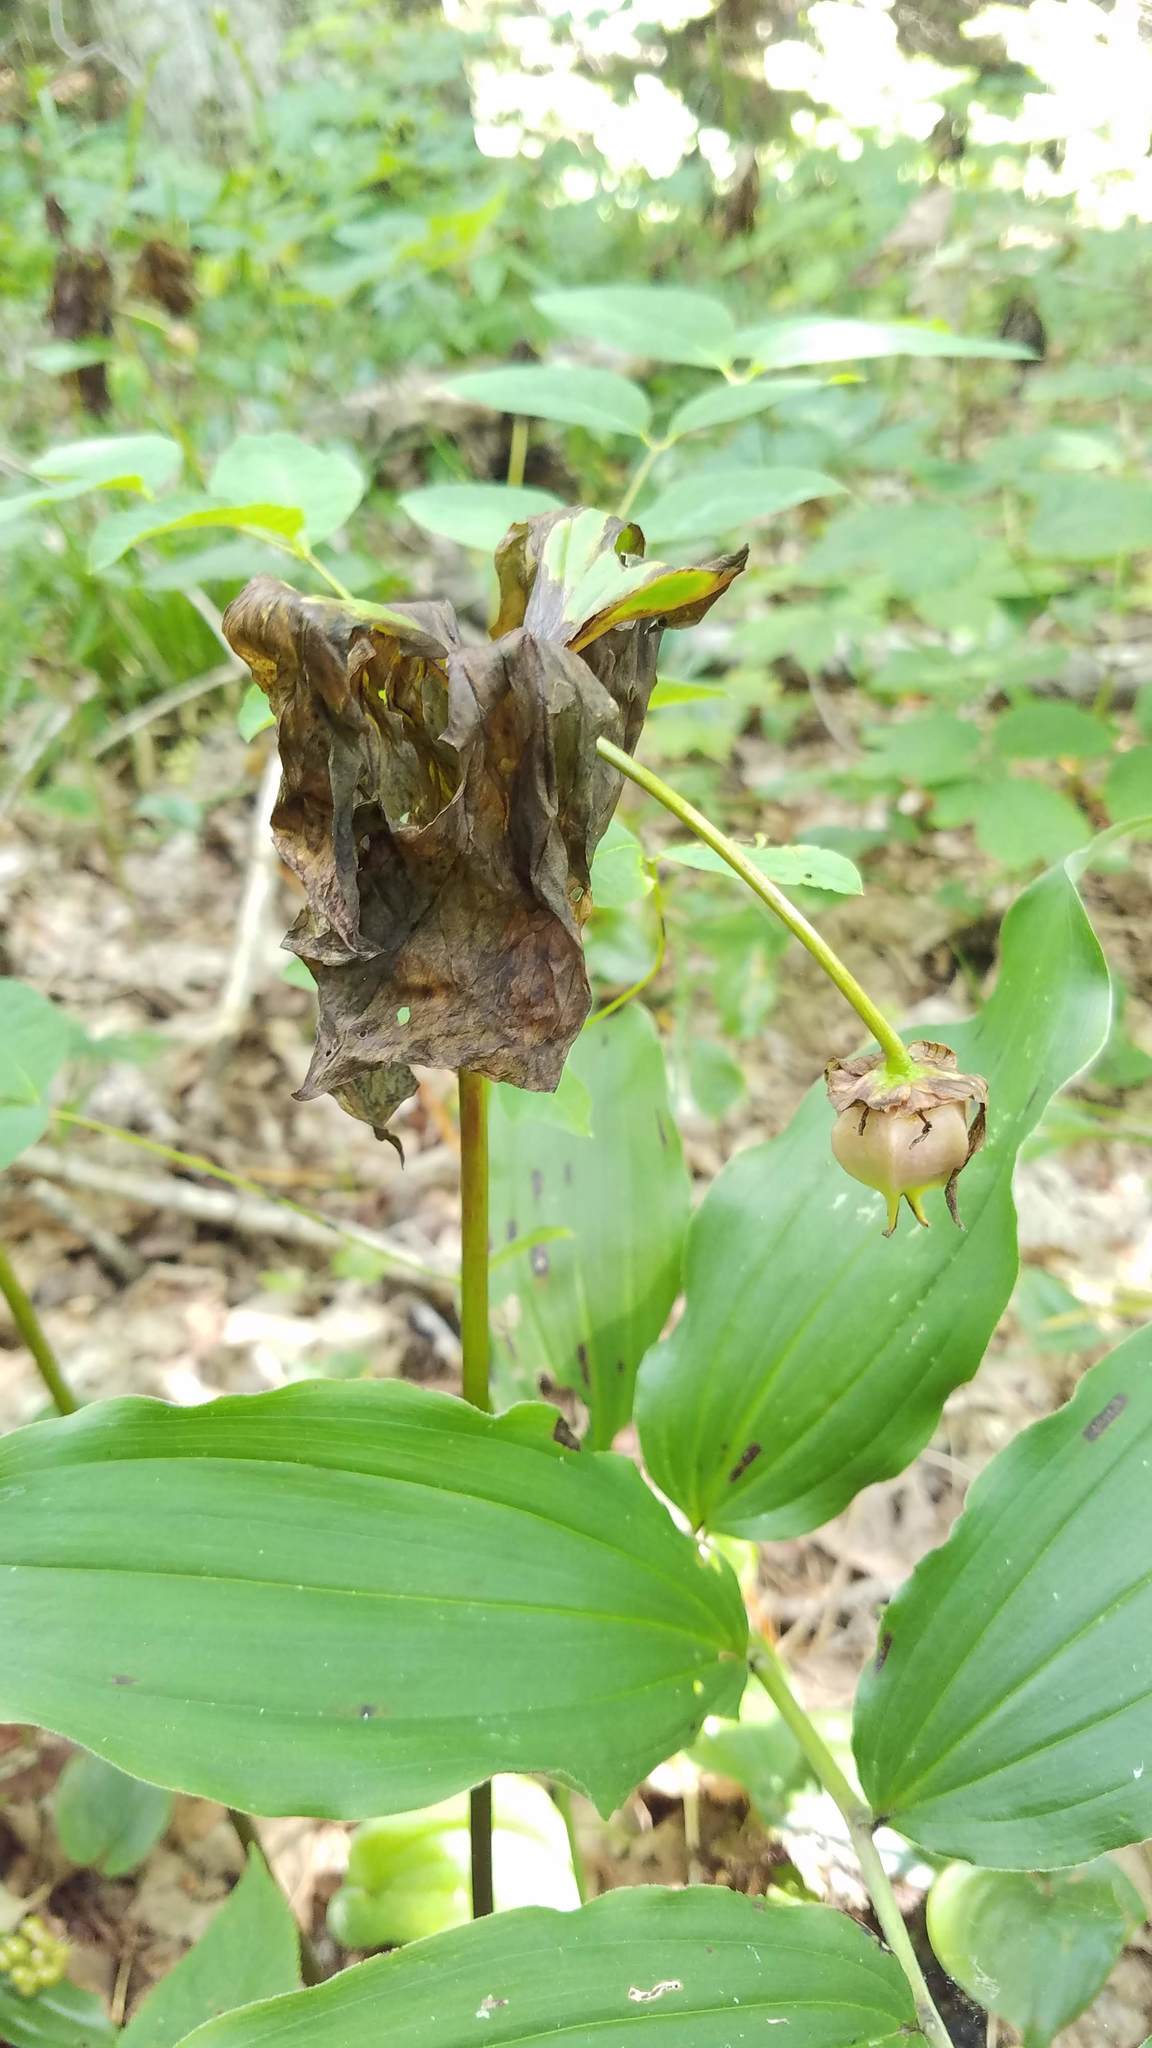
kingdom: Plantae
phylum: Tracheophyta
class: Liliopsida
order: Liliales
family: Melanthiaceae
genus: Trillium
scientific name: Trillium cernuum
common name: Nodding trillium
